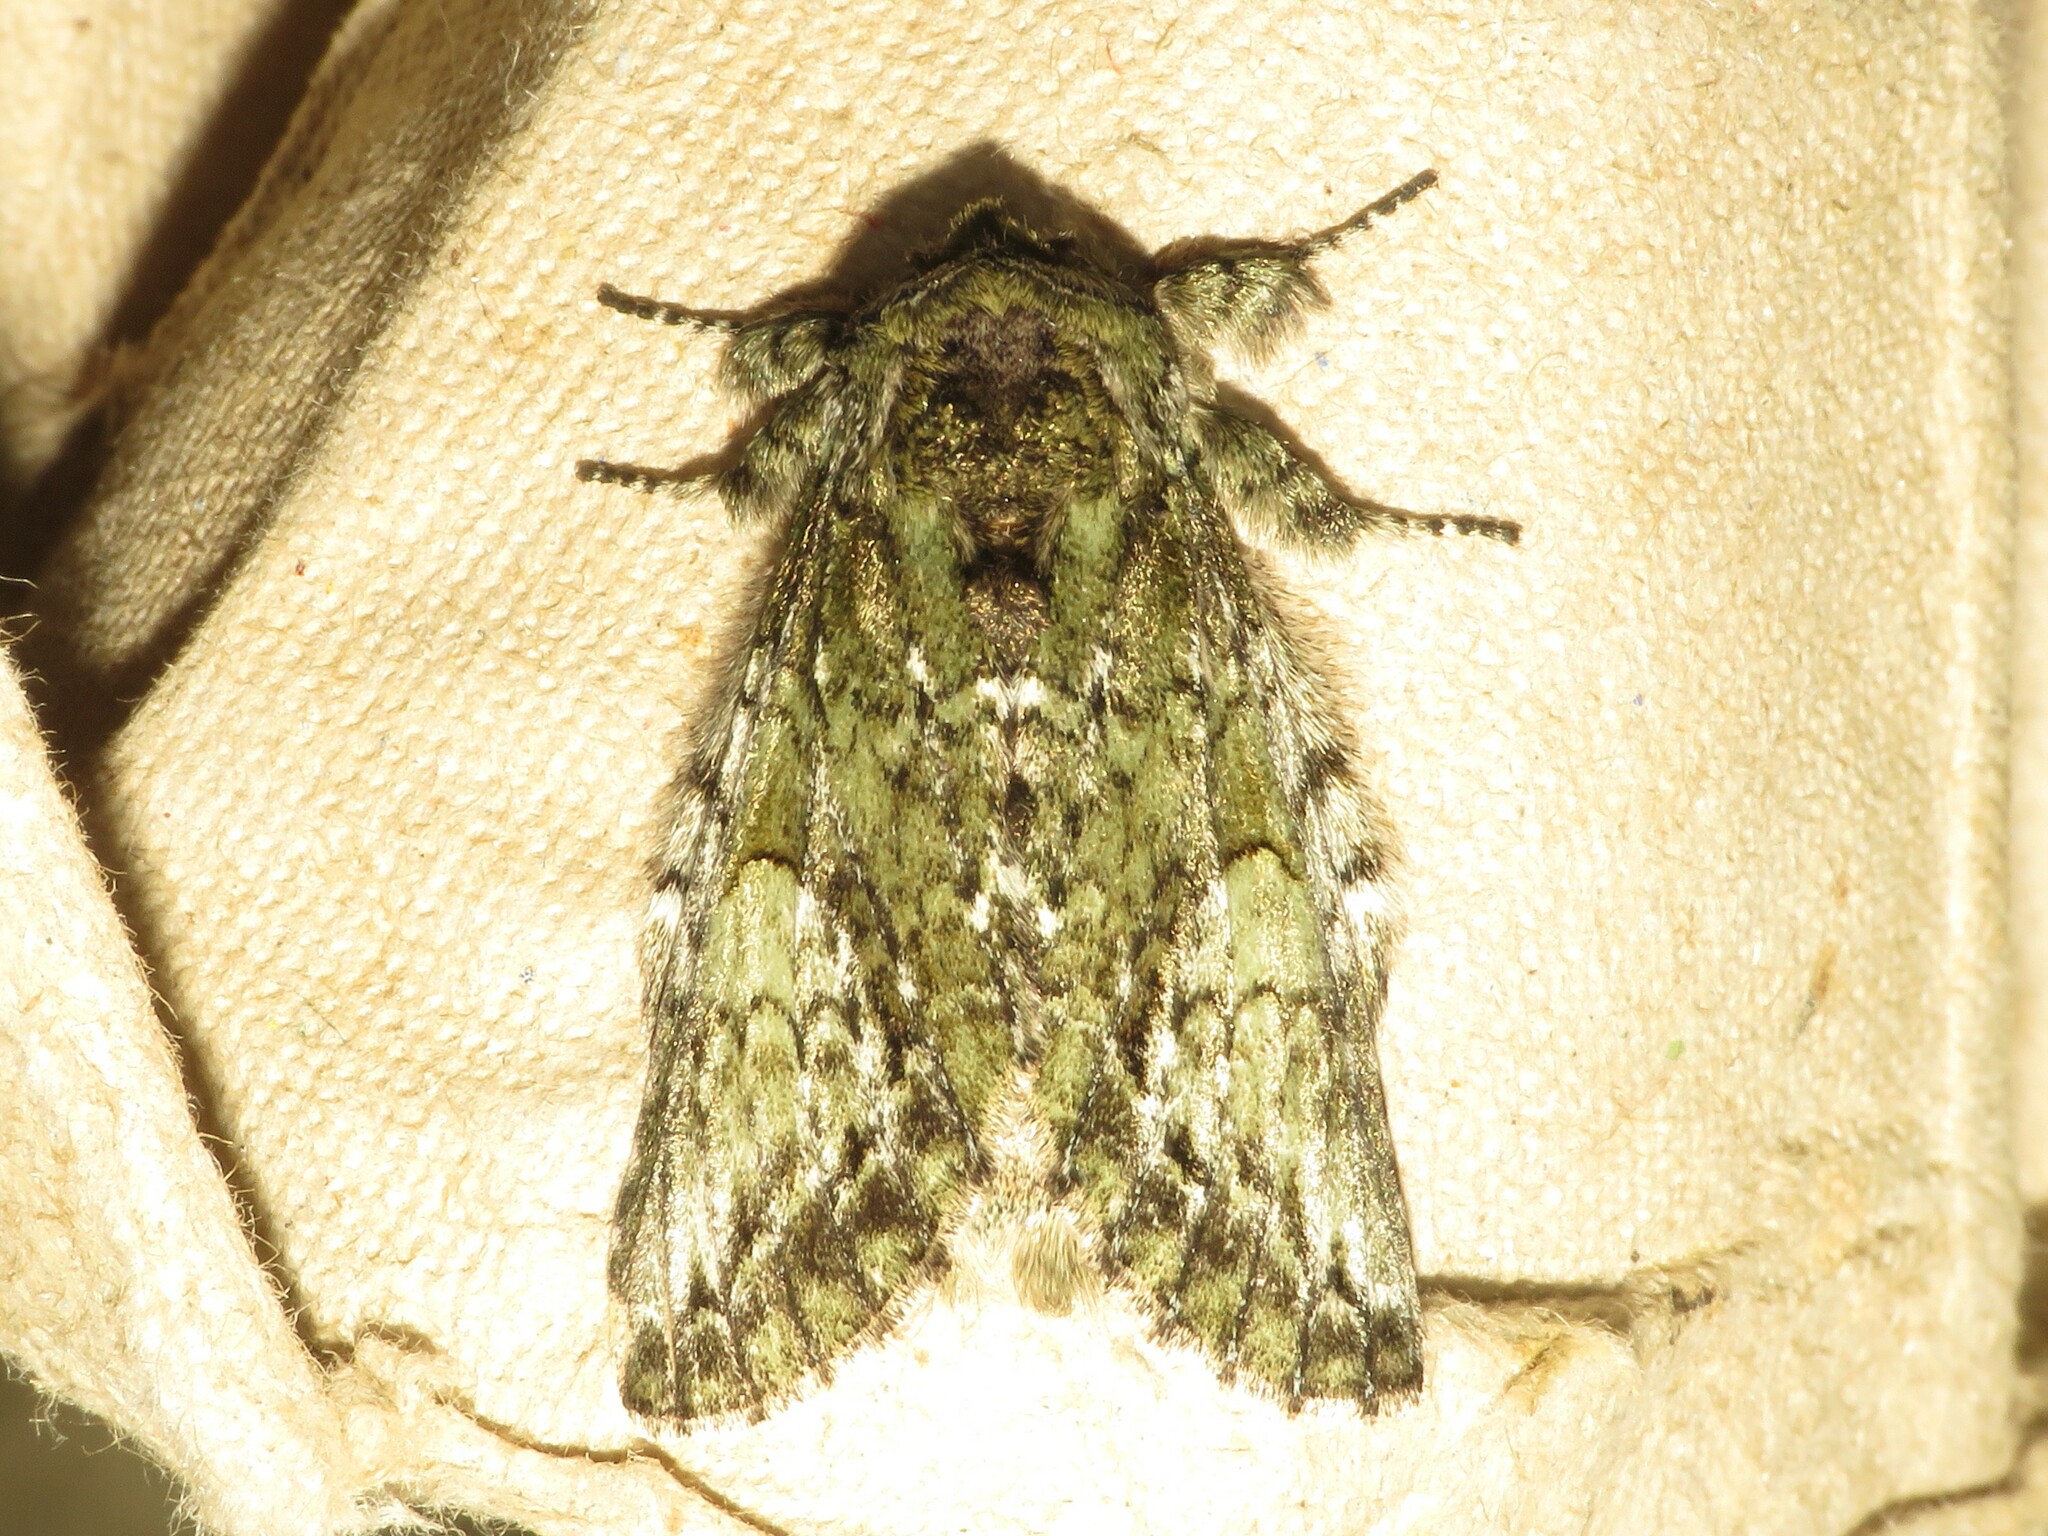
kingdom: Animalia
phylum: Arthropoda
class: Insecta
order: Lepidoptera
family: Notodontidae
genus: Heterocampa
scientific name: Heterocampa
